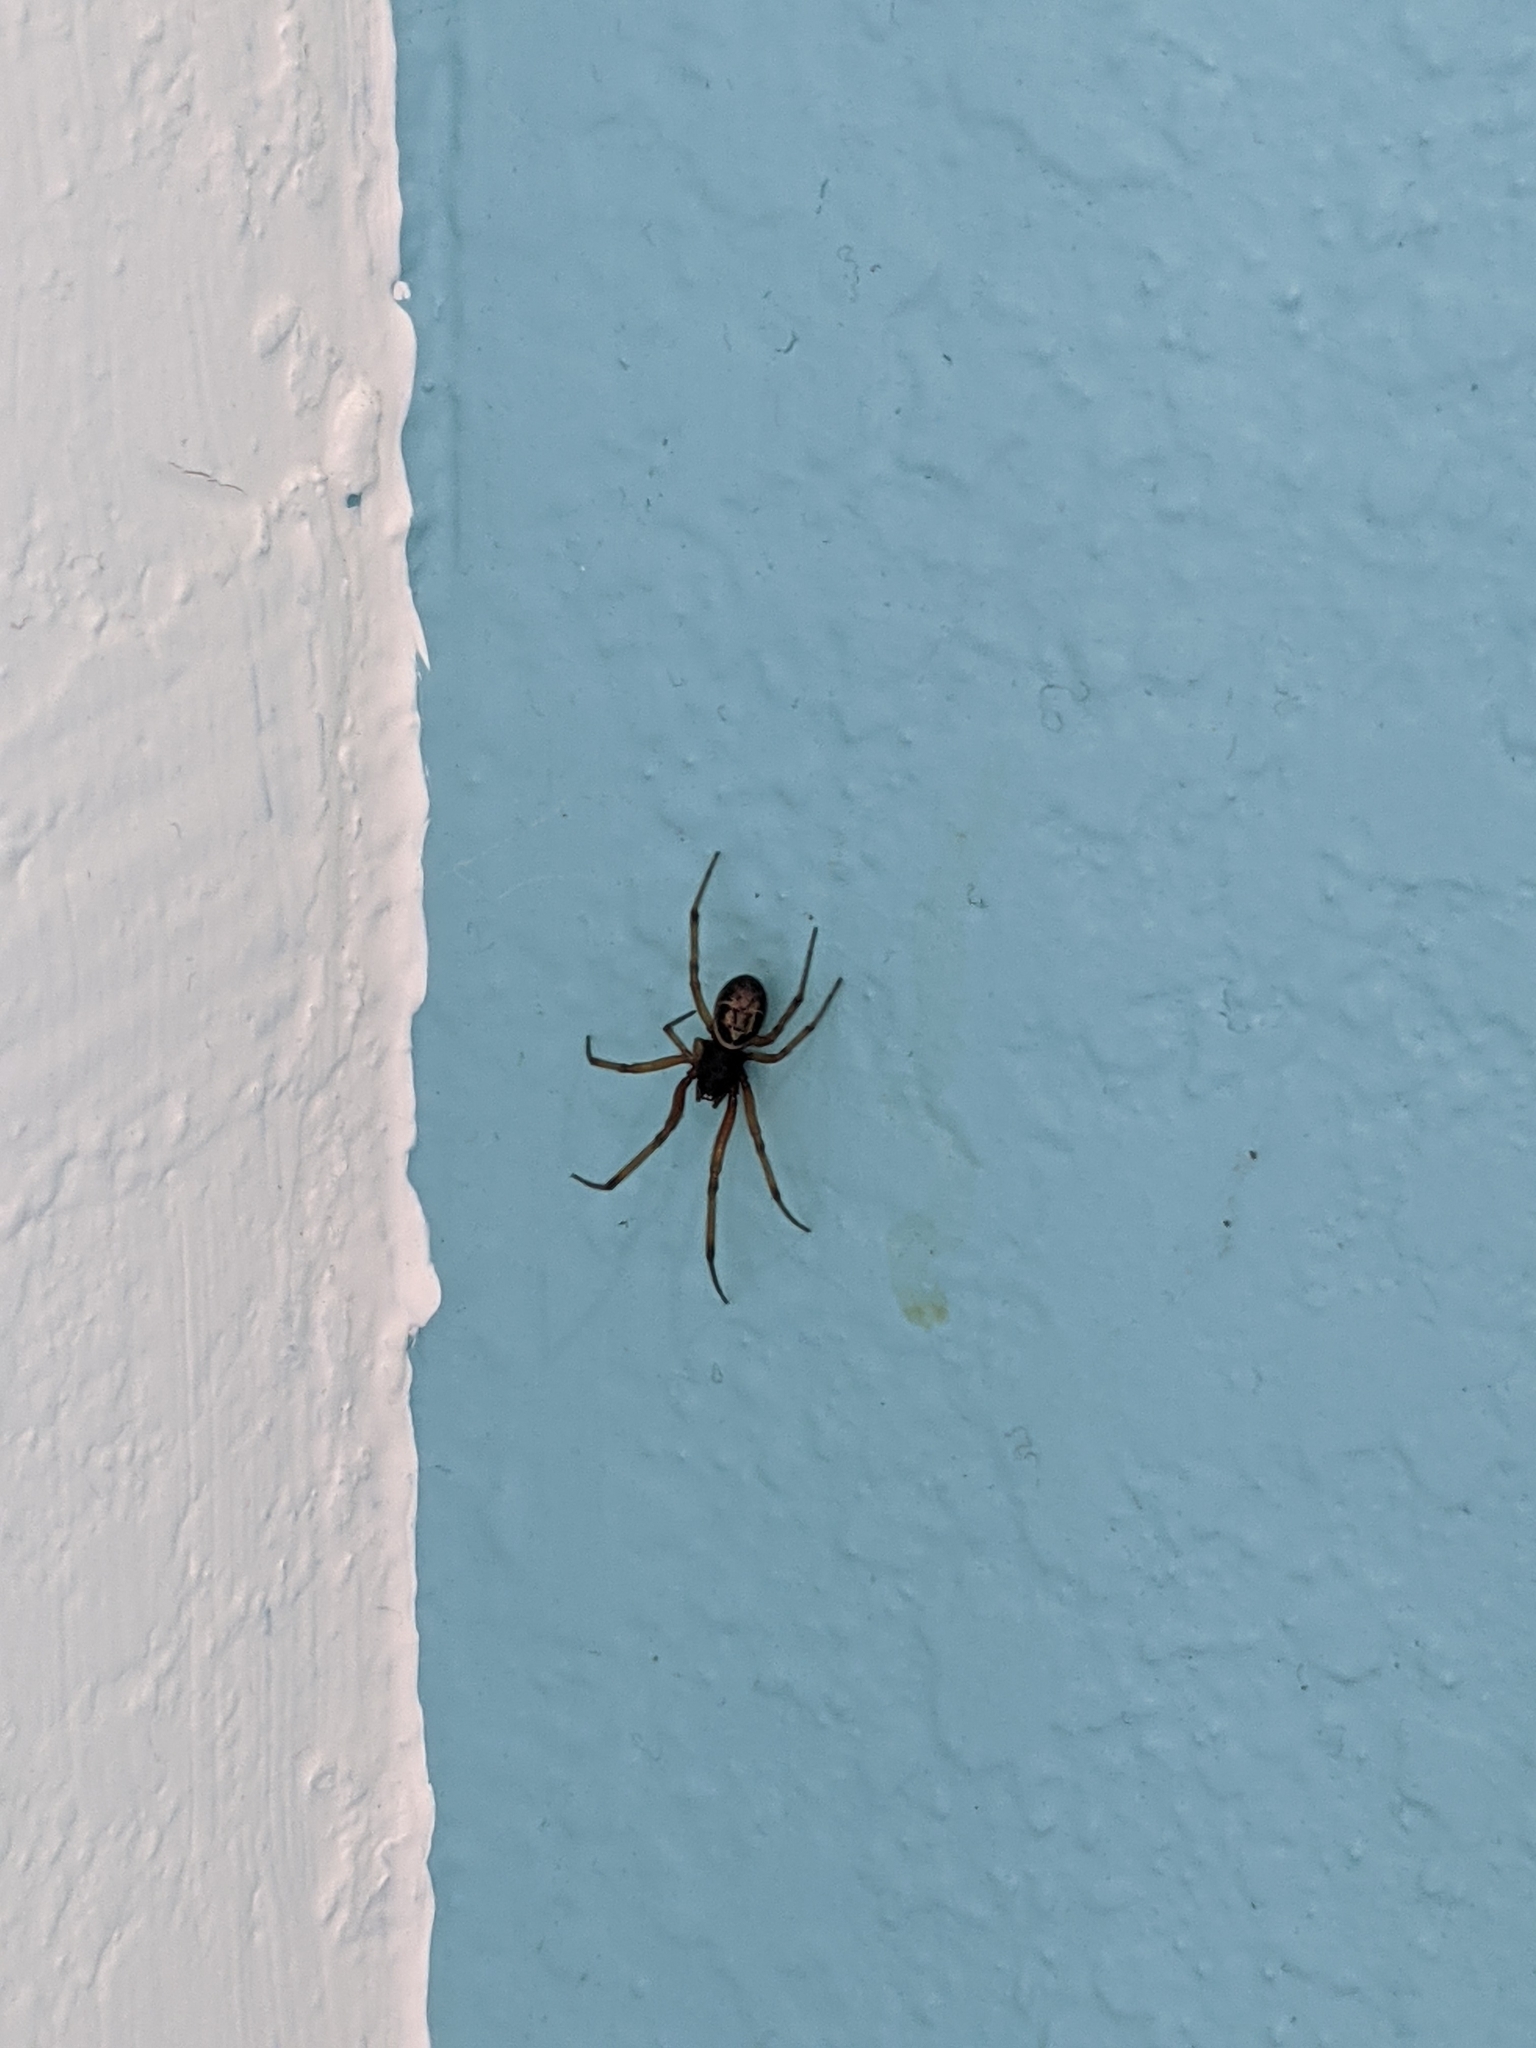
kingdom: Animalia
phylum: Arthropoda
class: Arachnida
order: Araneae
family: Theridiidae
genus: Steatoda
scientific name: Steatoda nobilis
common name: Cobweb weaver
